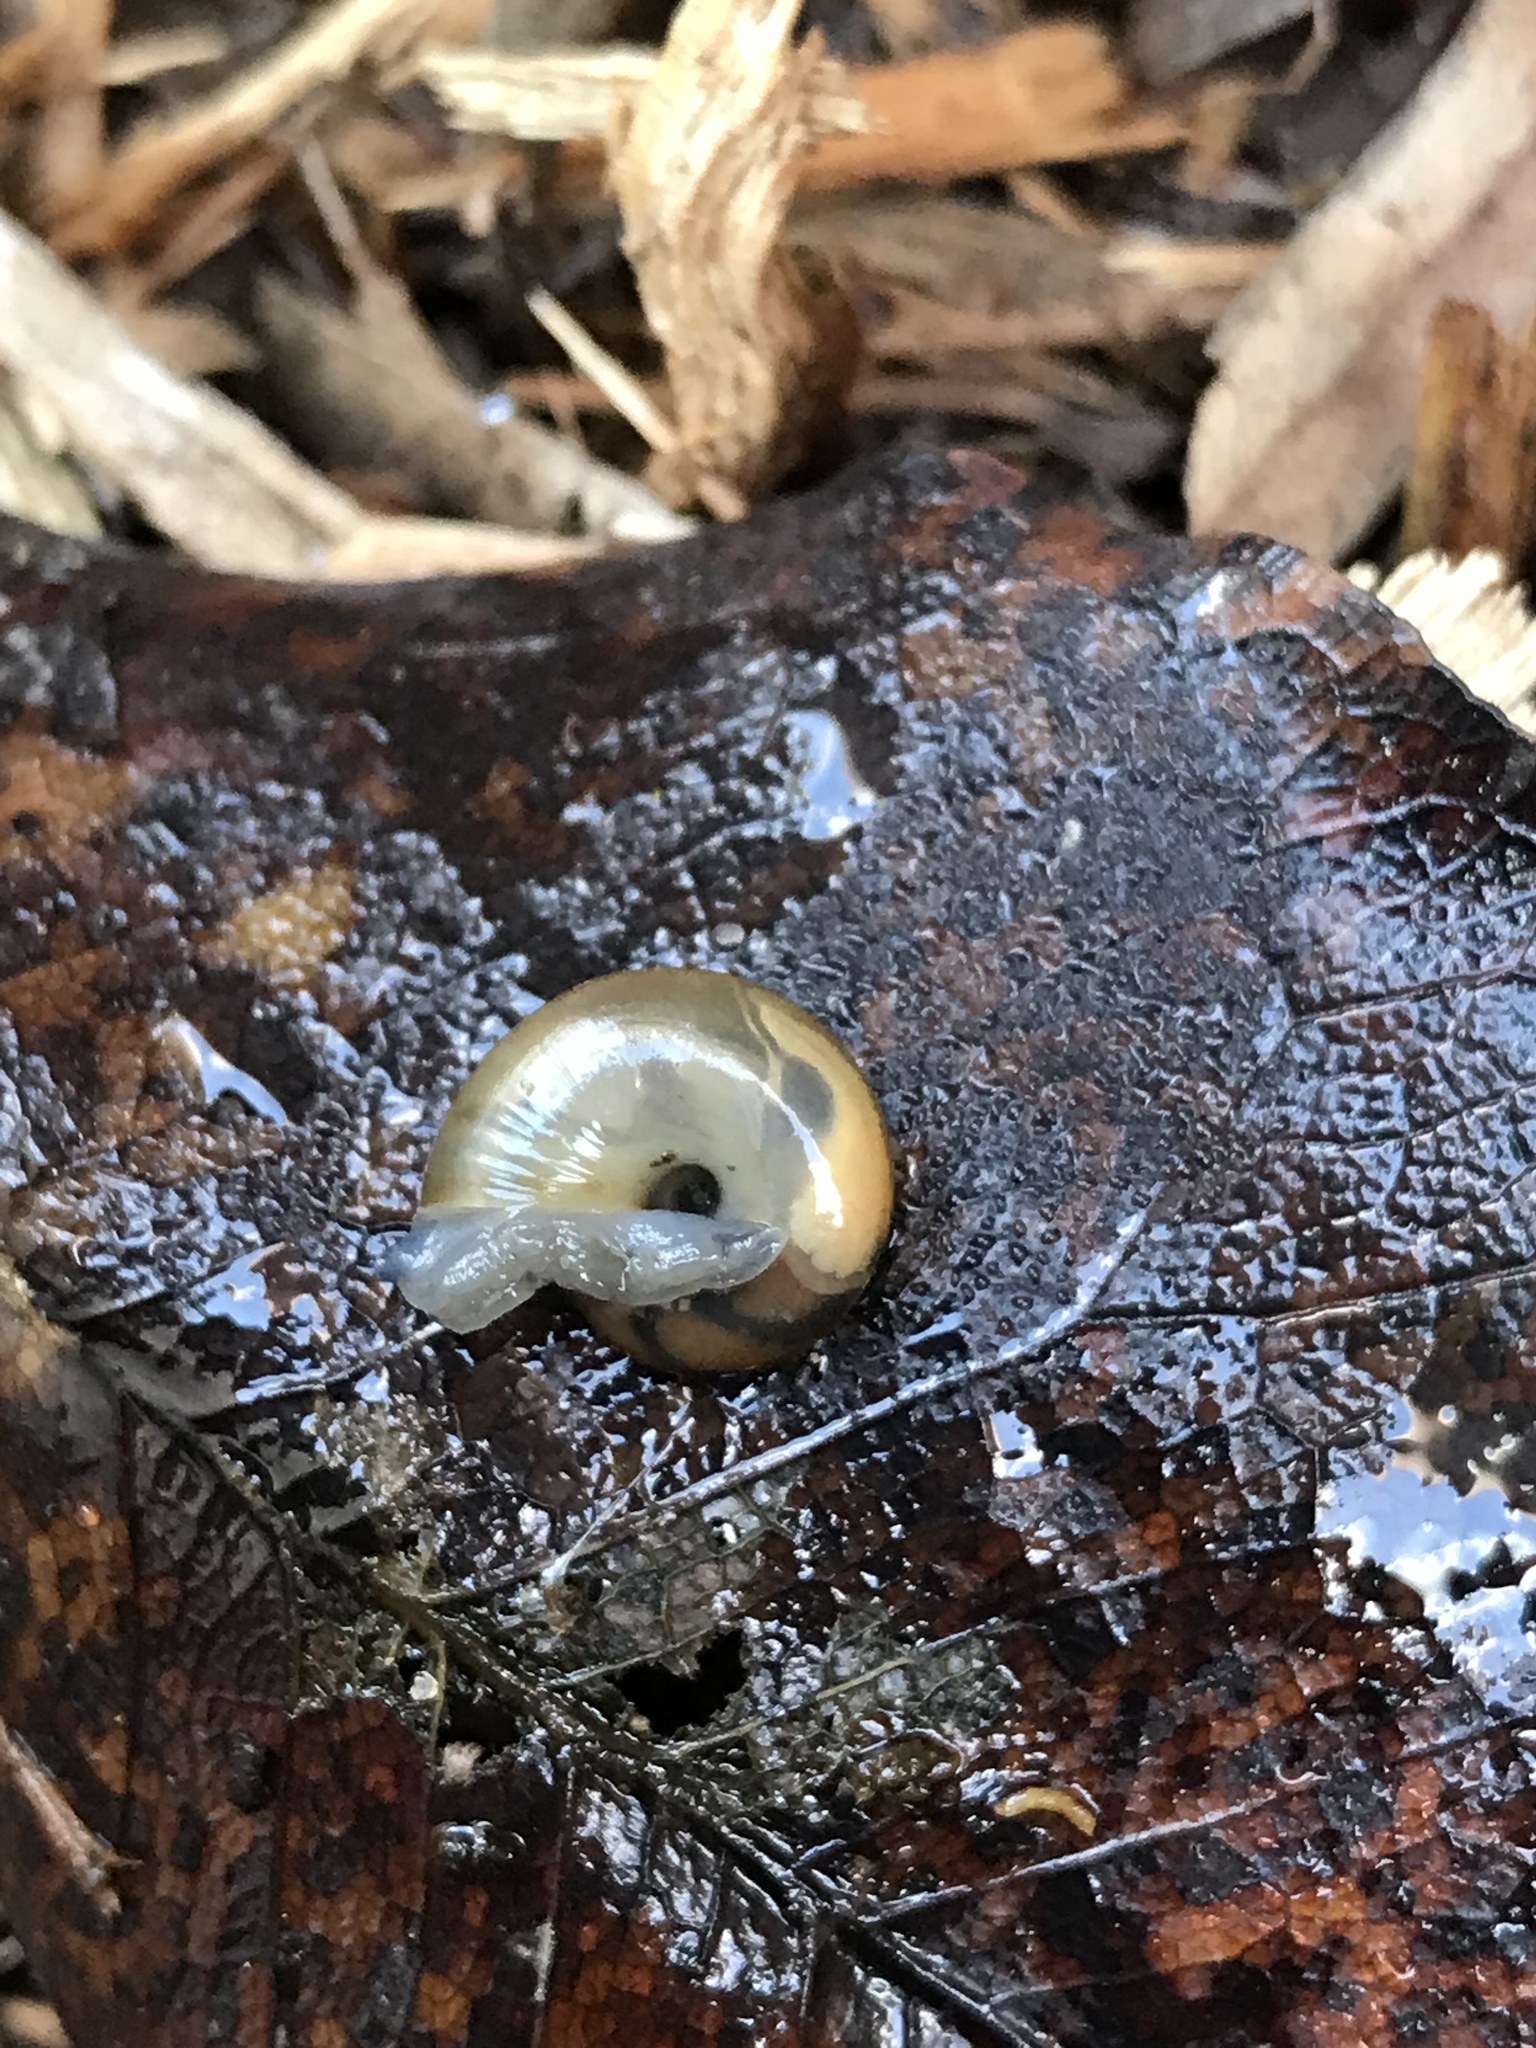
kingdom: Animalia
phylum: Mollusca
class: Gastropoda
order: Stylommatophora
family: Oxychilidae
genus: Oxychilus
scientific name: Oxychilus
